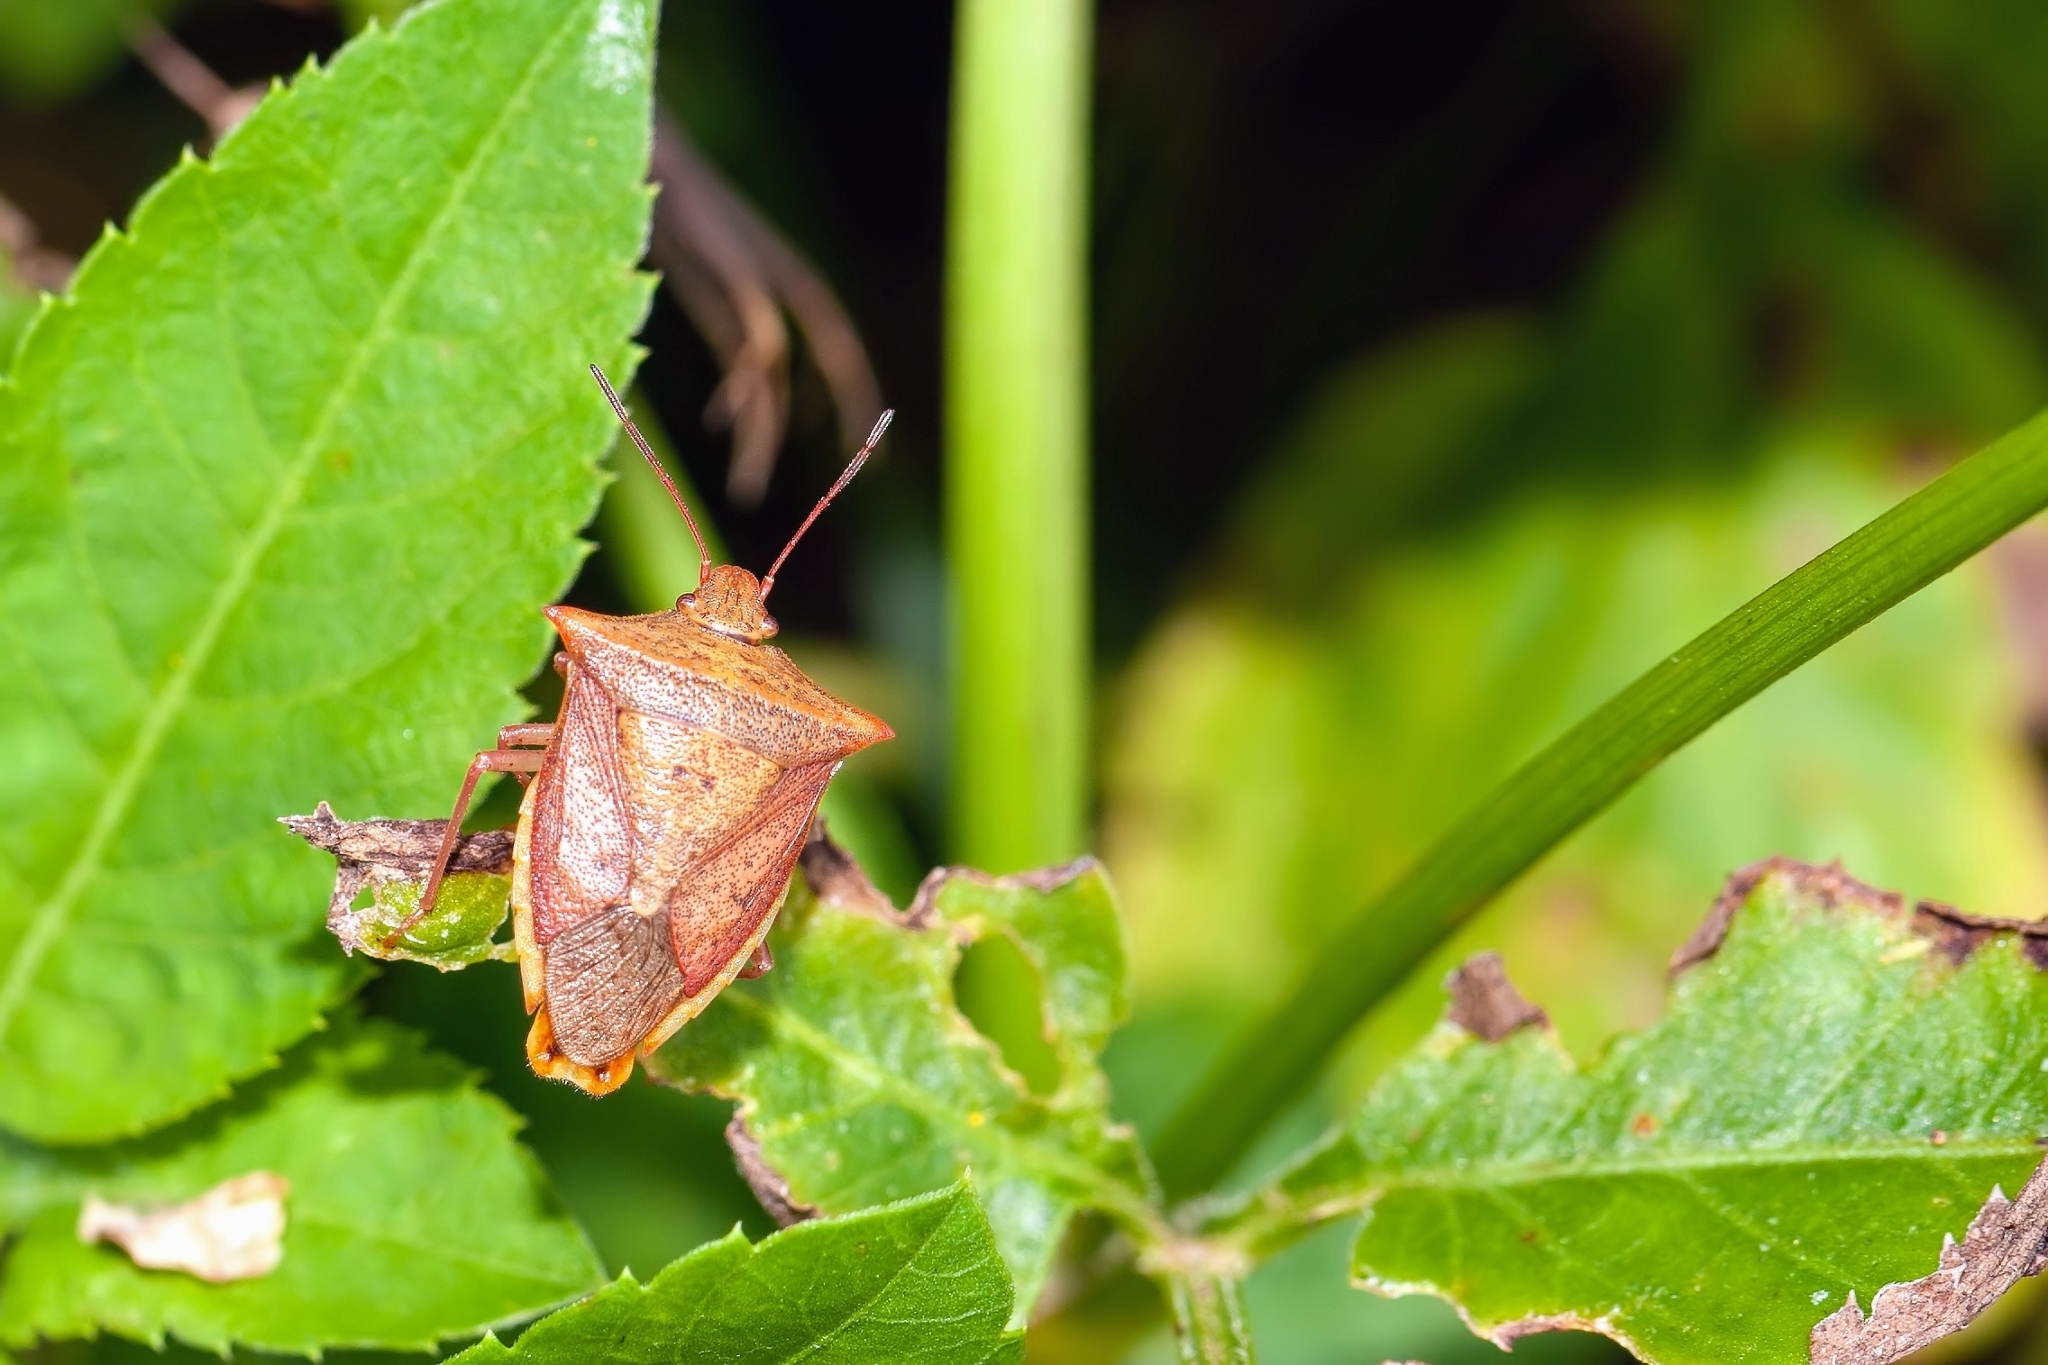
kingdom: Animalia
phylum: Arthropoda
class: Insecta
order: Hemiptera
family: Pentatomidae
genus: Euschistus
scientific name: Euschistus ictericus
